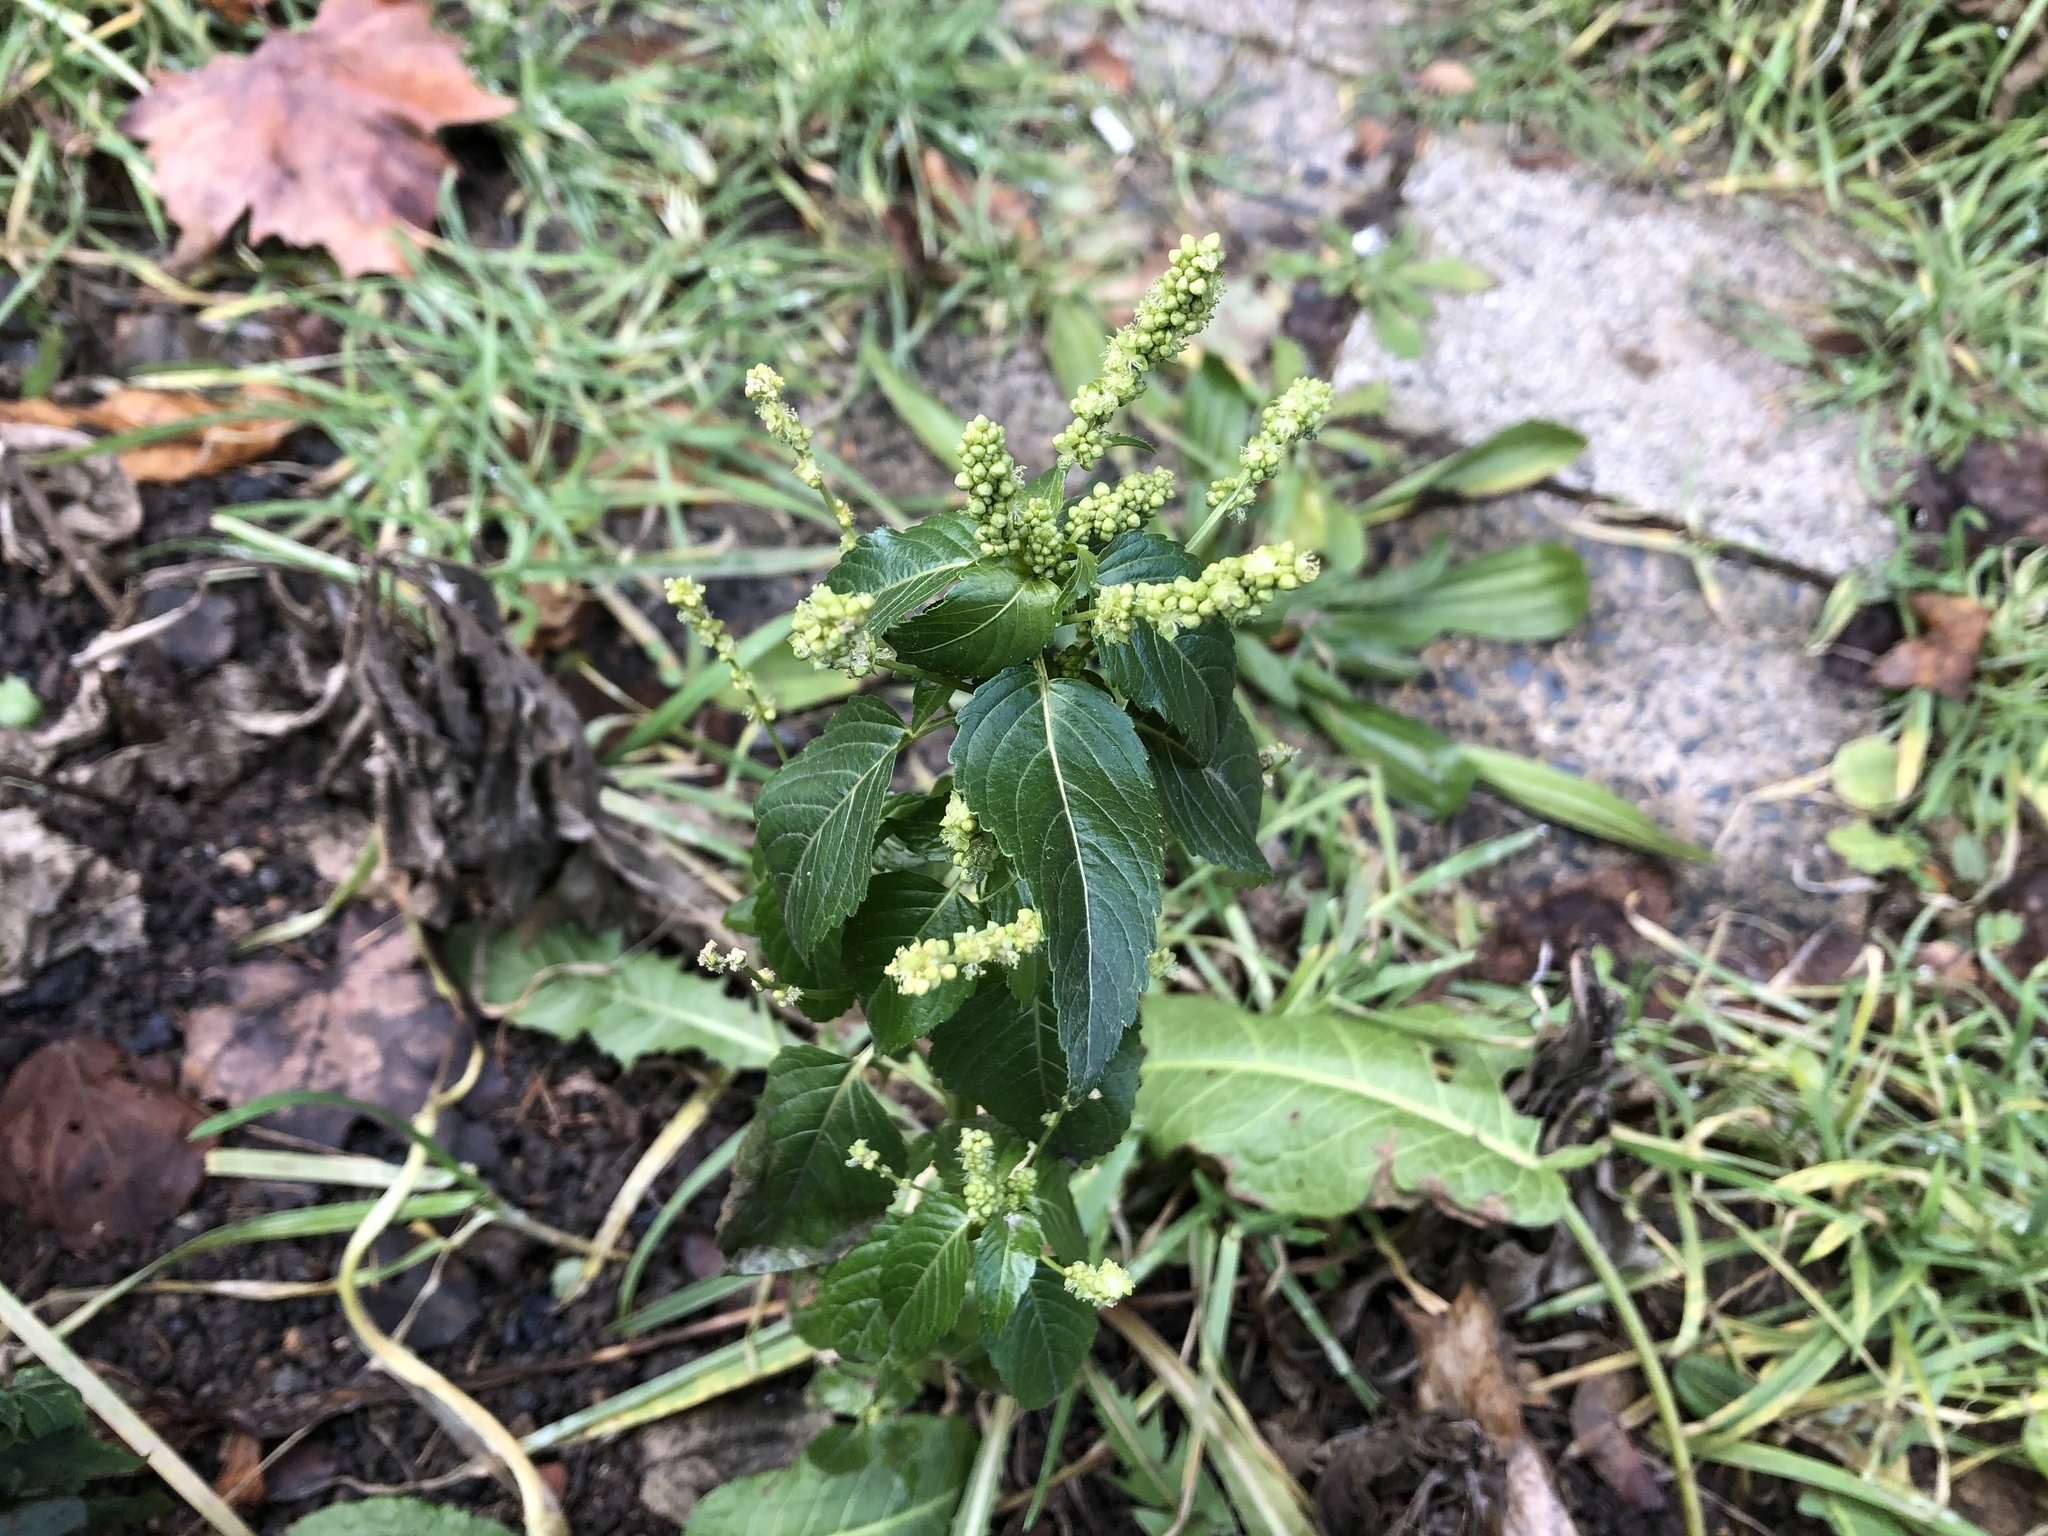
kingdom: Plantae
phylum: Tracheophyta
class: Magnoliopsida
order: Malpighiales
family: Euphorbiaceae
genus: Mercurialis
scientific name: Mercurialis annua
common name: Annual mercury
